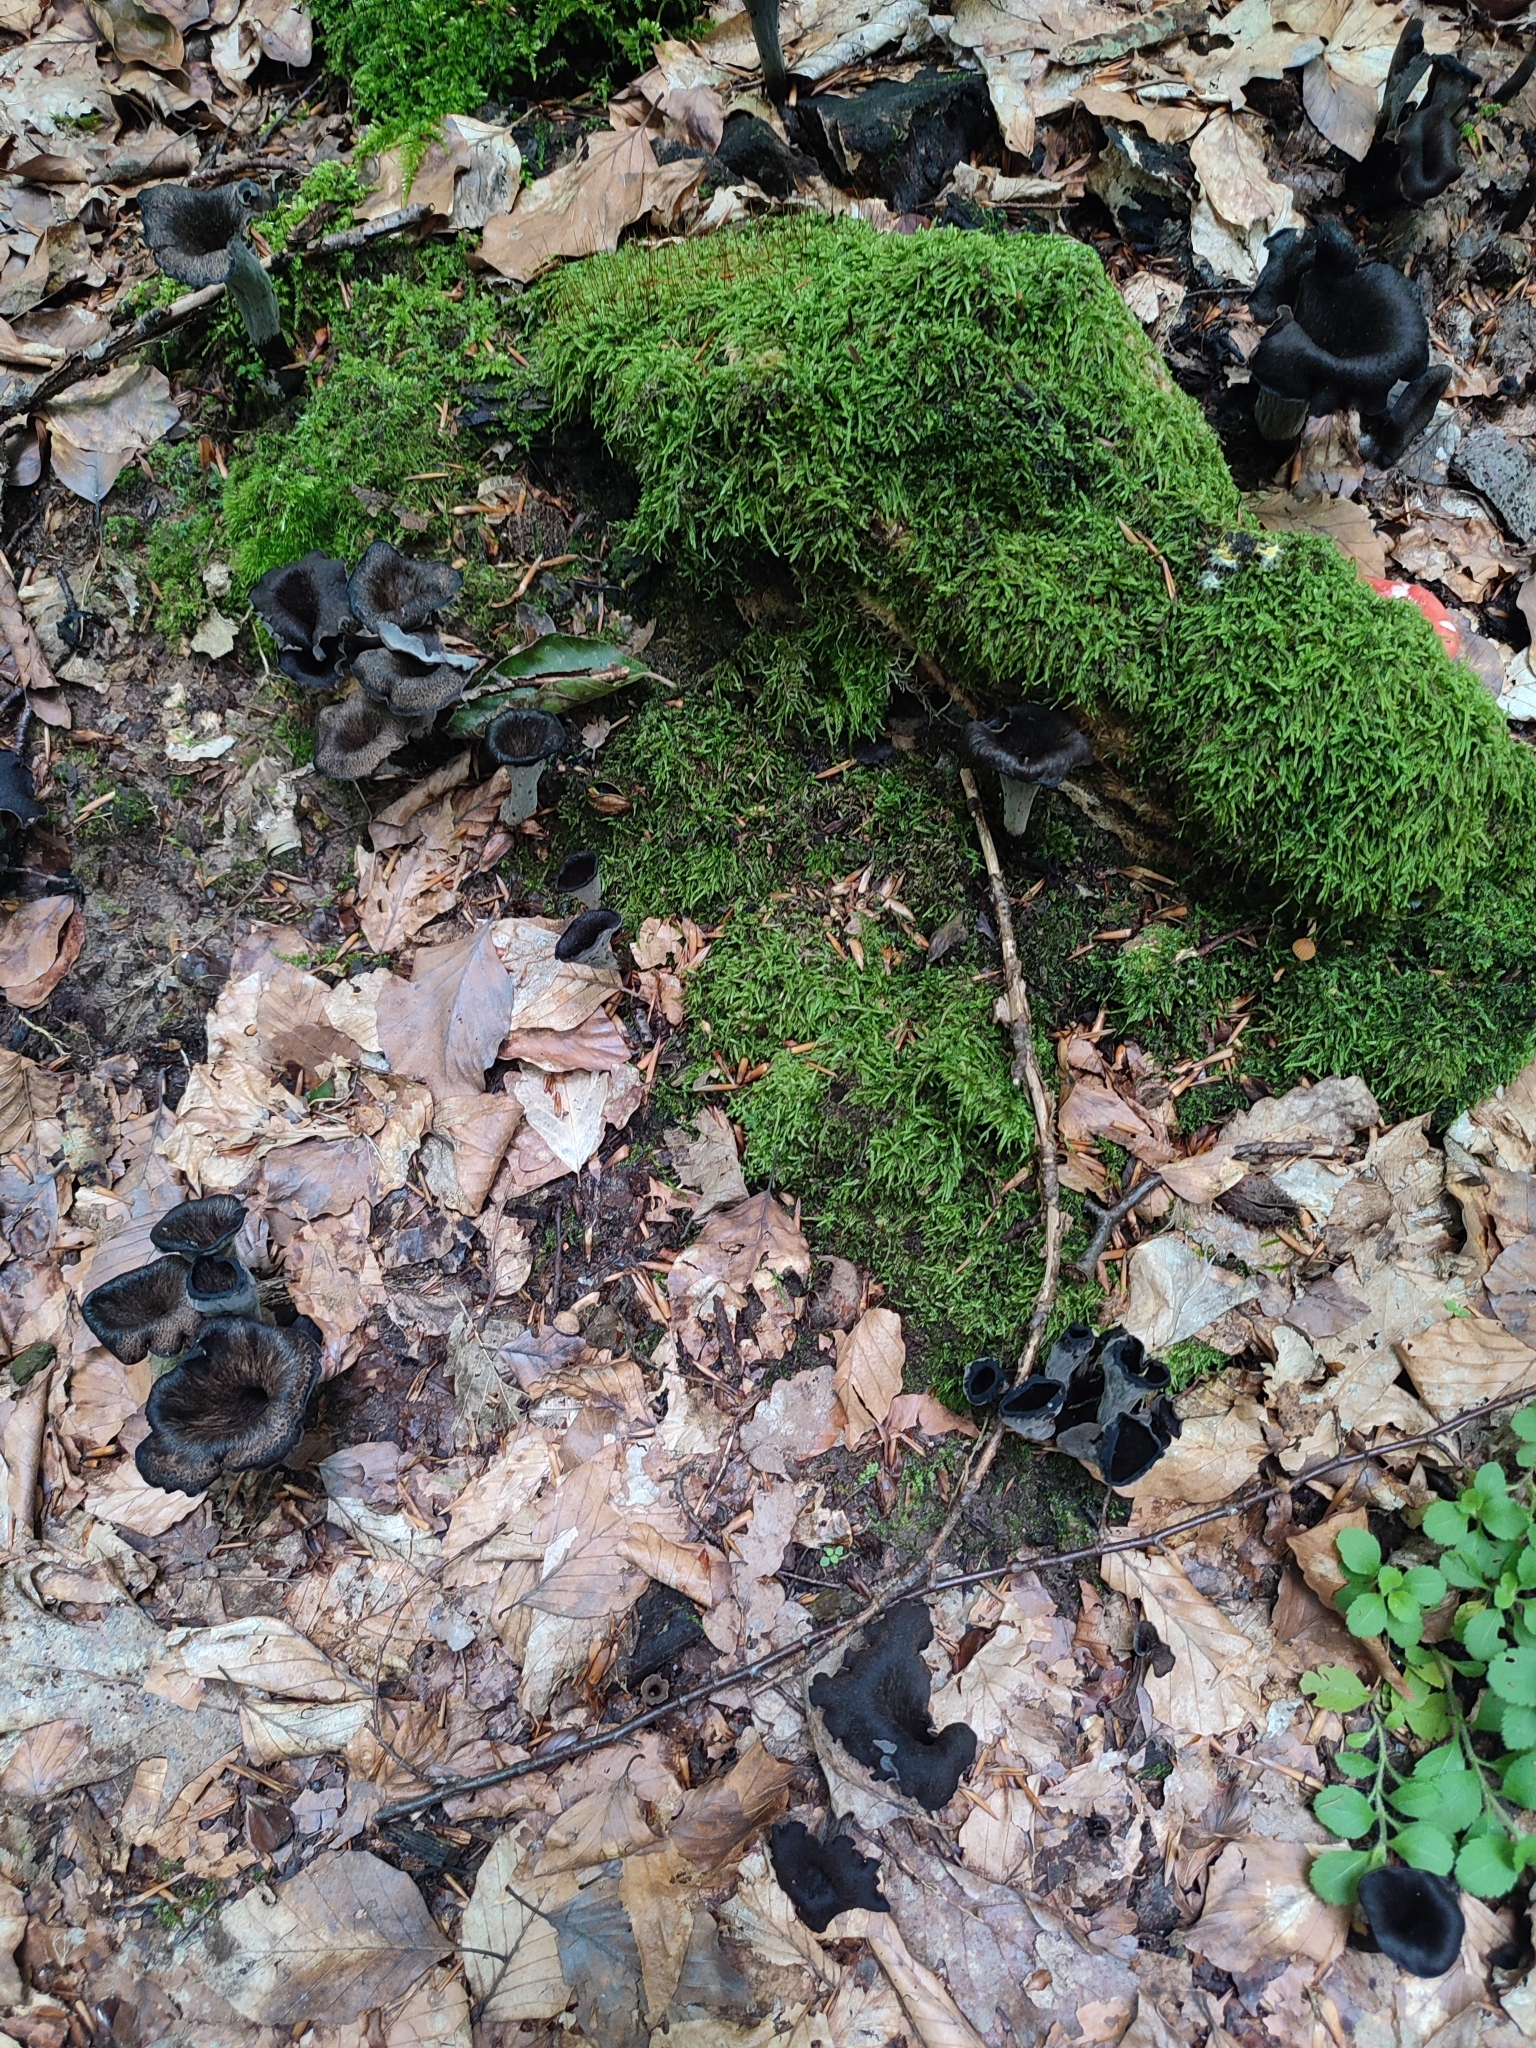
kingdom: Fungi
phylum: Basidiomycota
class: Agaricomycetes
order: Cantharellales
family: Hydnaceae
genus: Craterellus
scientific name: Craterellus cornucopioides
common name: Horn of plenty
